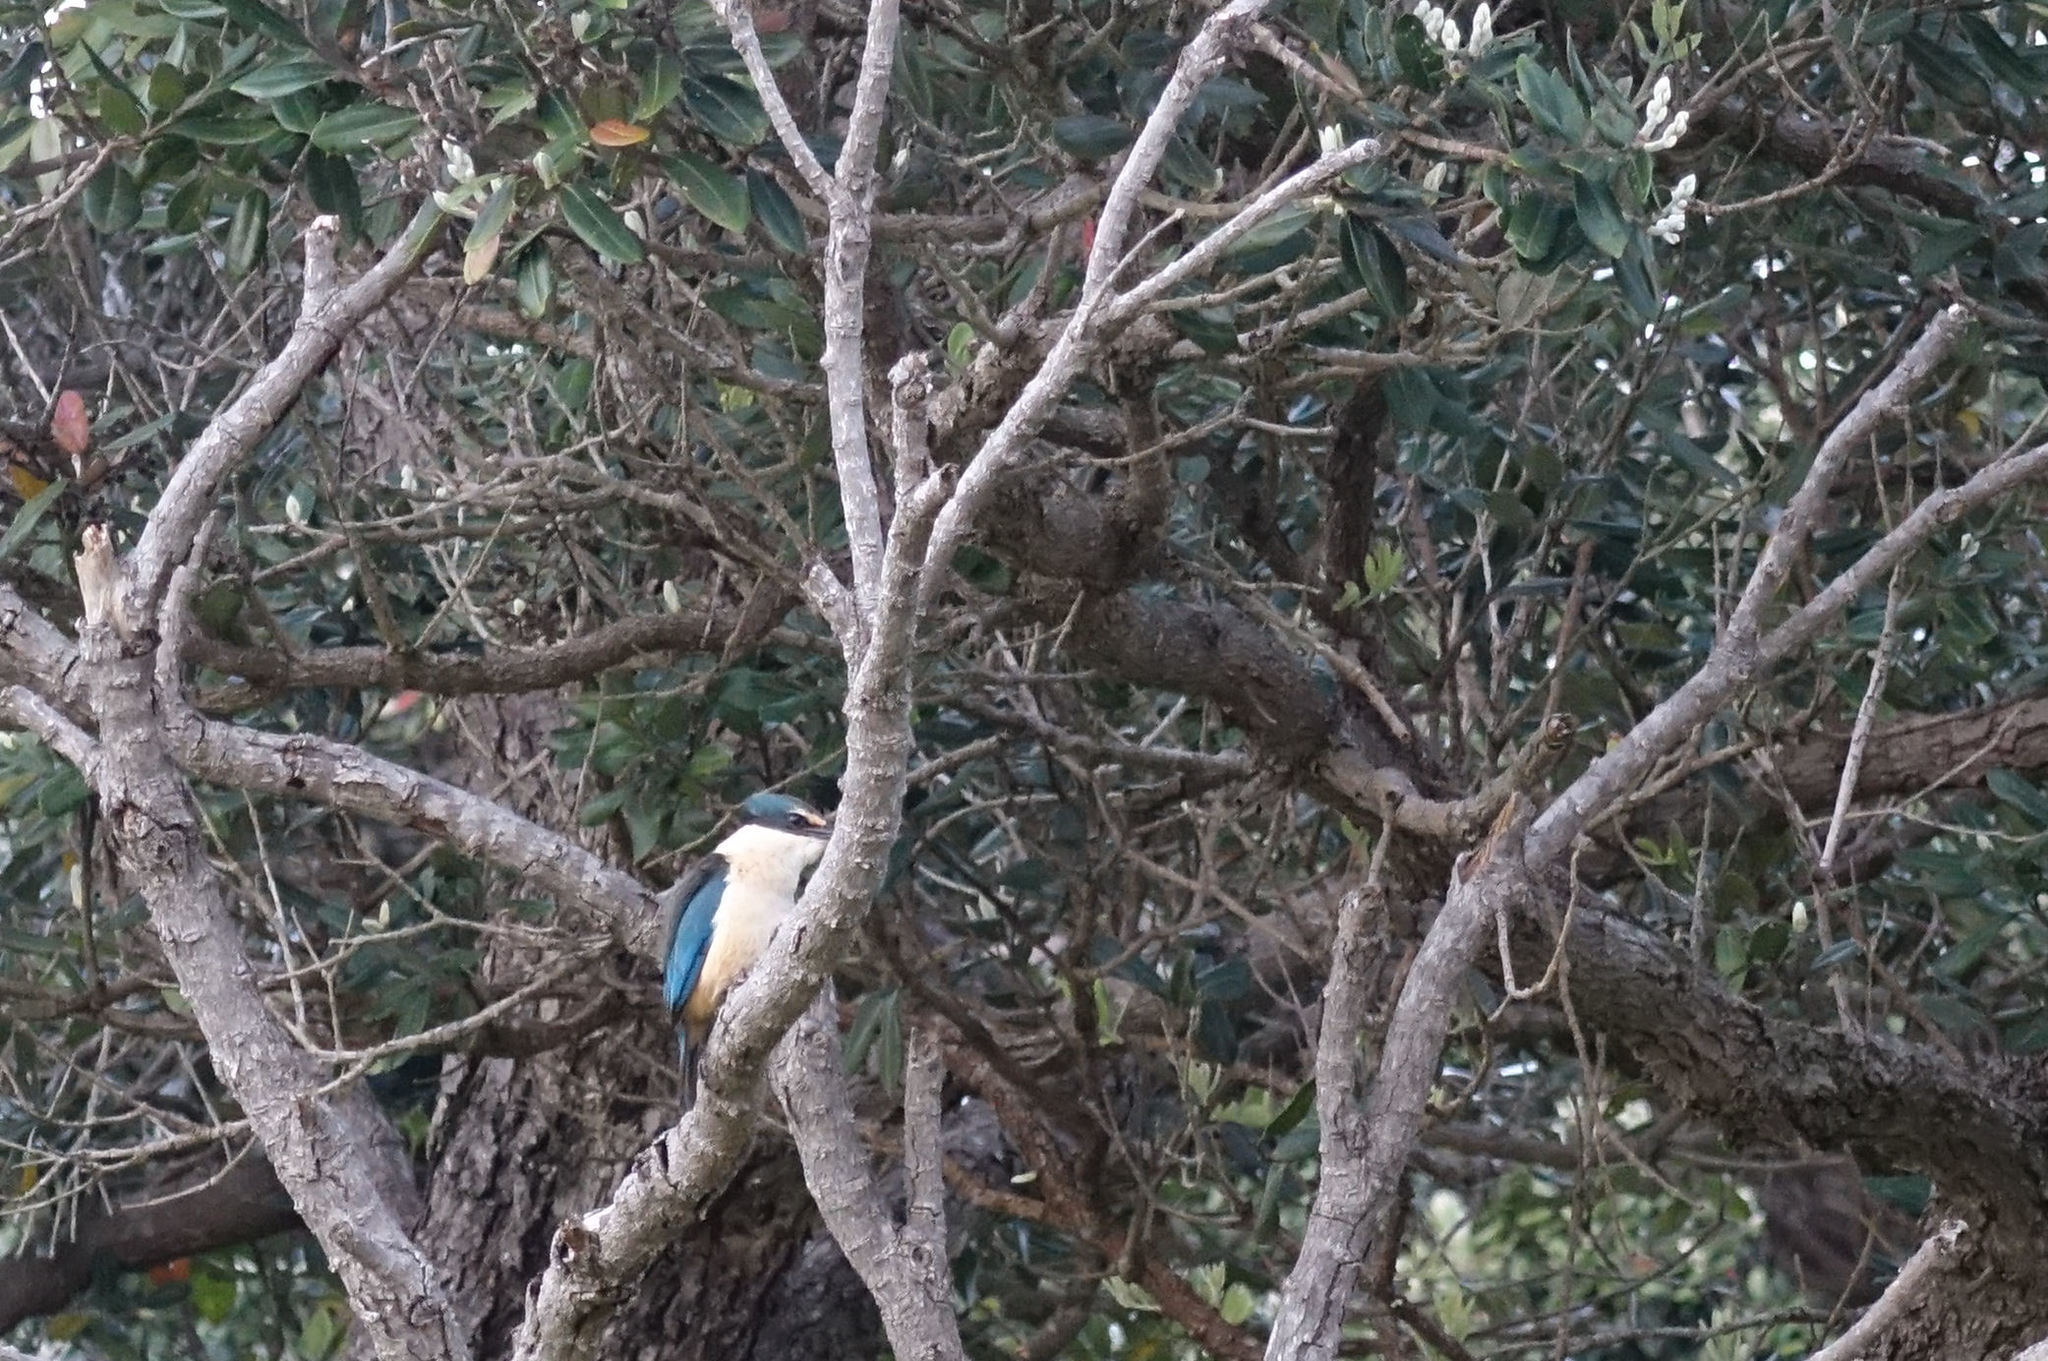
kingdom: Animalia
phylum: Chordata
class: Aves
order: Coraciiformes
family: Alcedinidae
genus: Todiramphus
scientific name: Todiramphus sanctus
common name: Sacred kingfisher
